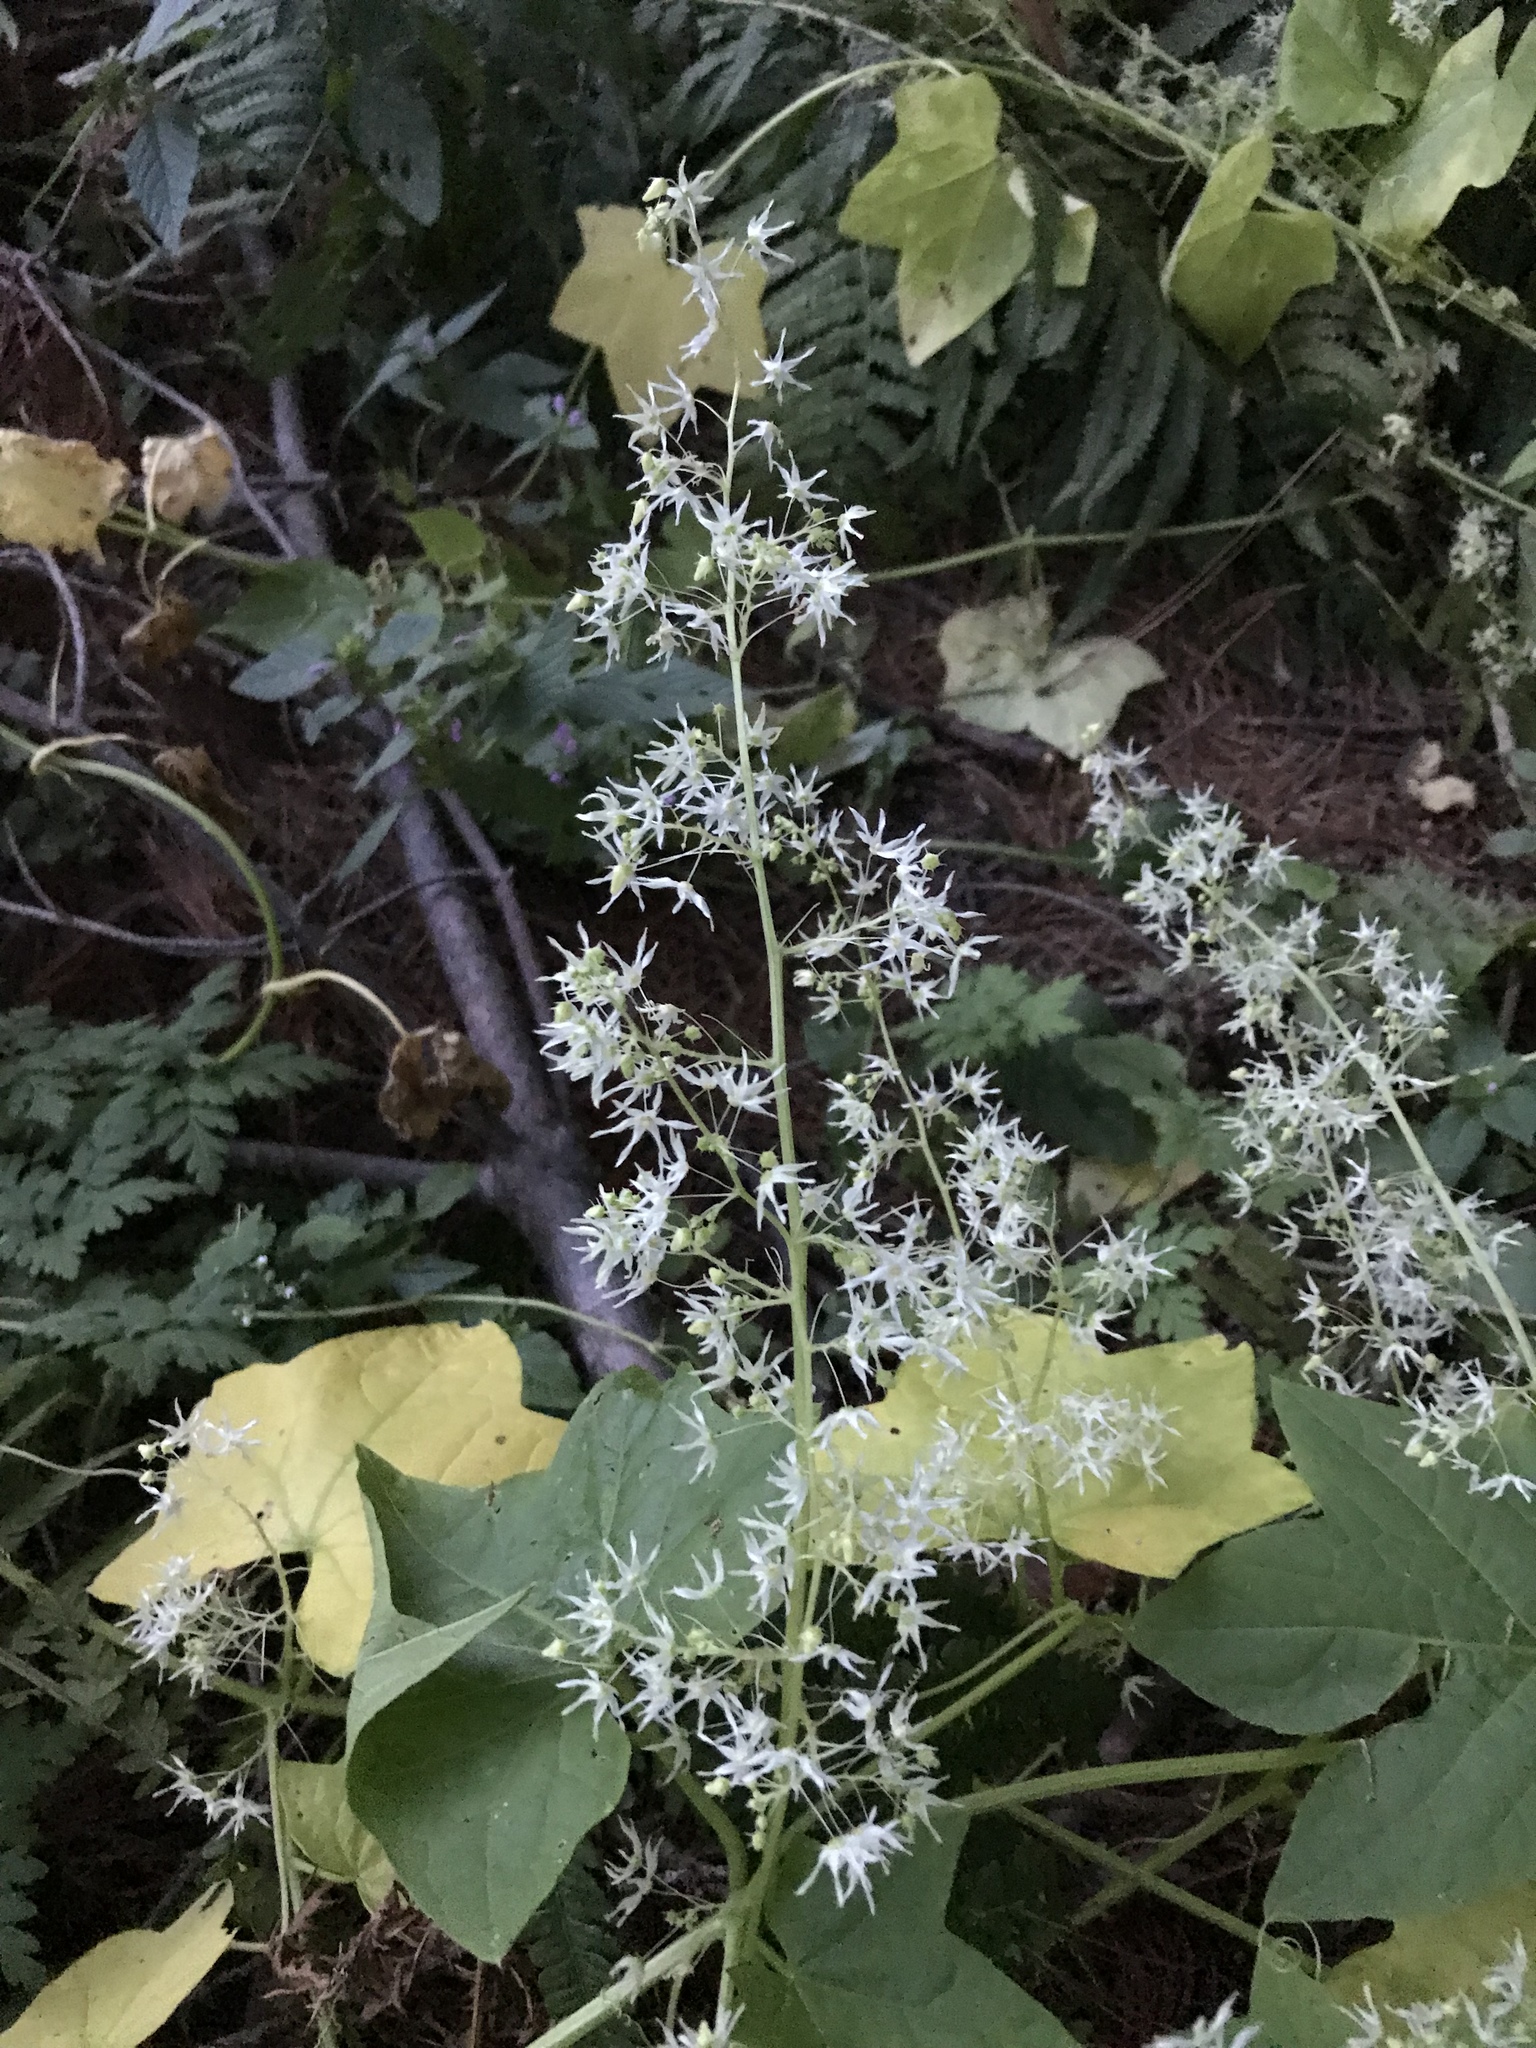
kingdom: Plantae
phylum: Tracheophyta
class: Magnoliopsida
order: Cucurbitales
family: Cucurbitaceae
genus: Echinocystis
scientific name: Echinocystis lobata
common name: Wild cucumber
